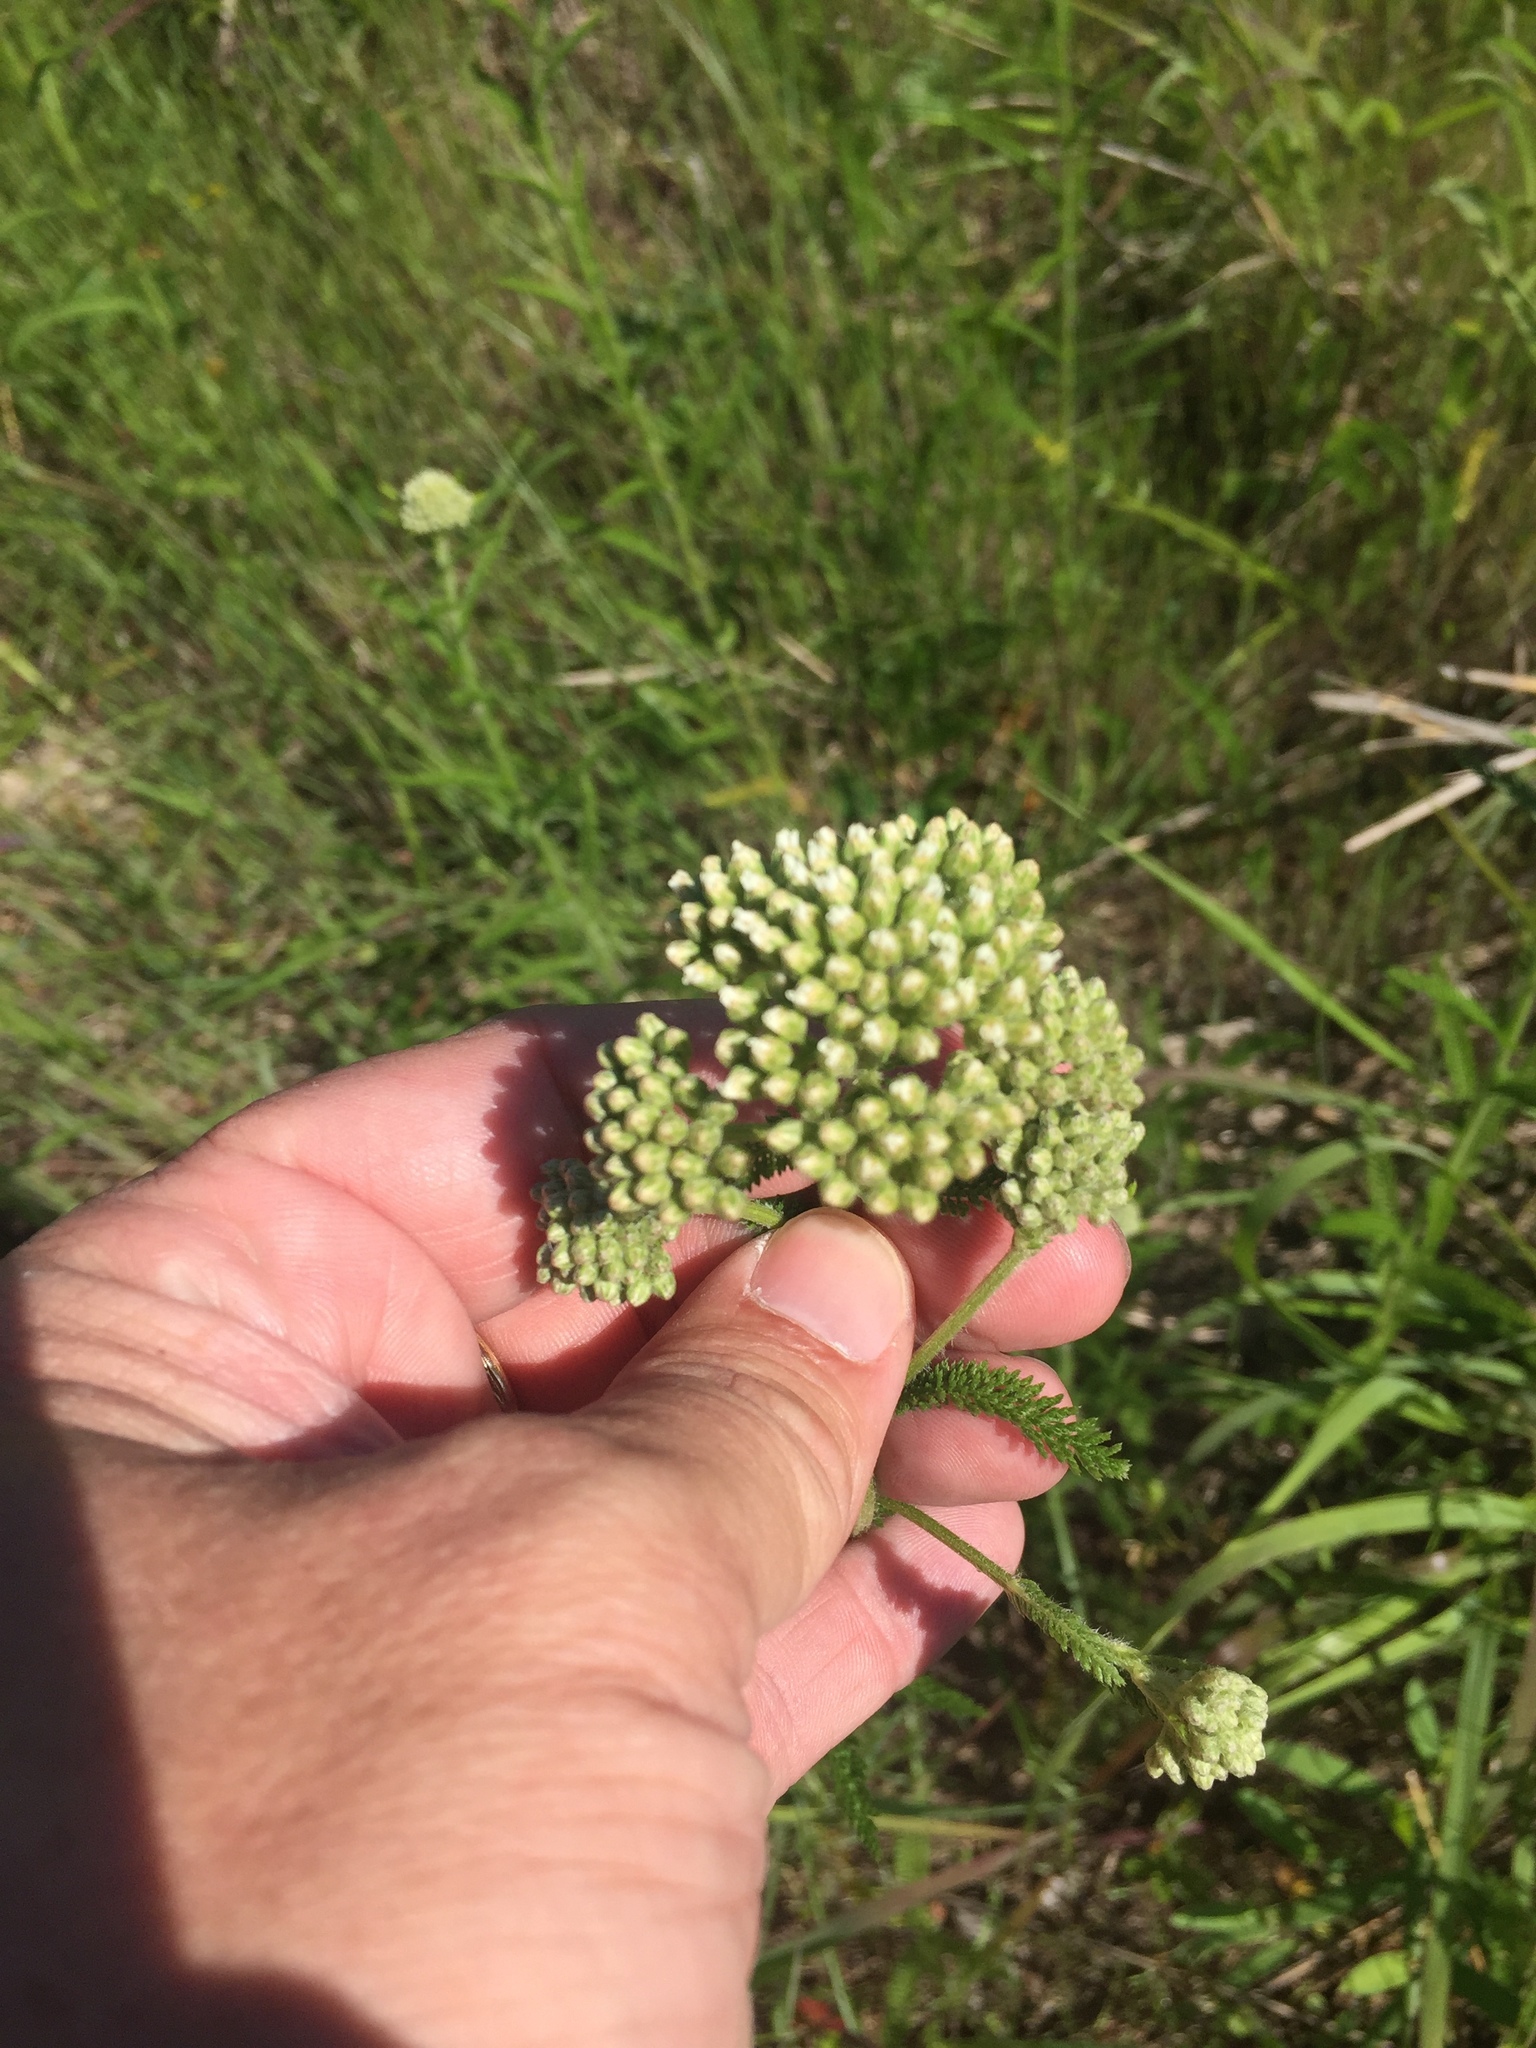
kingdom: Plantae
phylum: Tracheophyta
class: Magnoliopsida
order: Asterales
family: Asteraceae
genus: Achillea
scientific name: Achillea millefolium
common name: Yarrow
